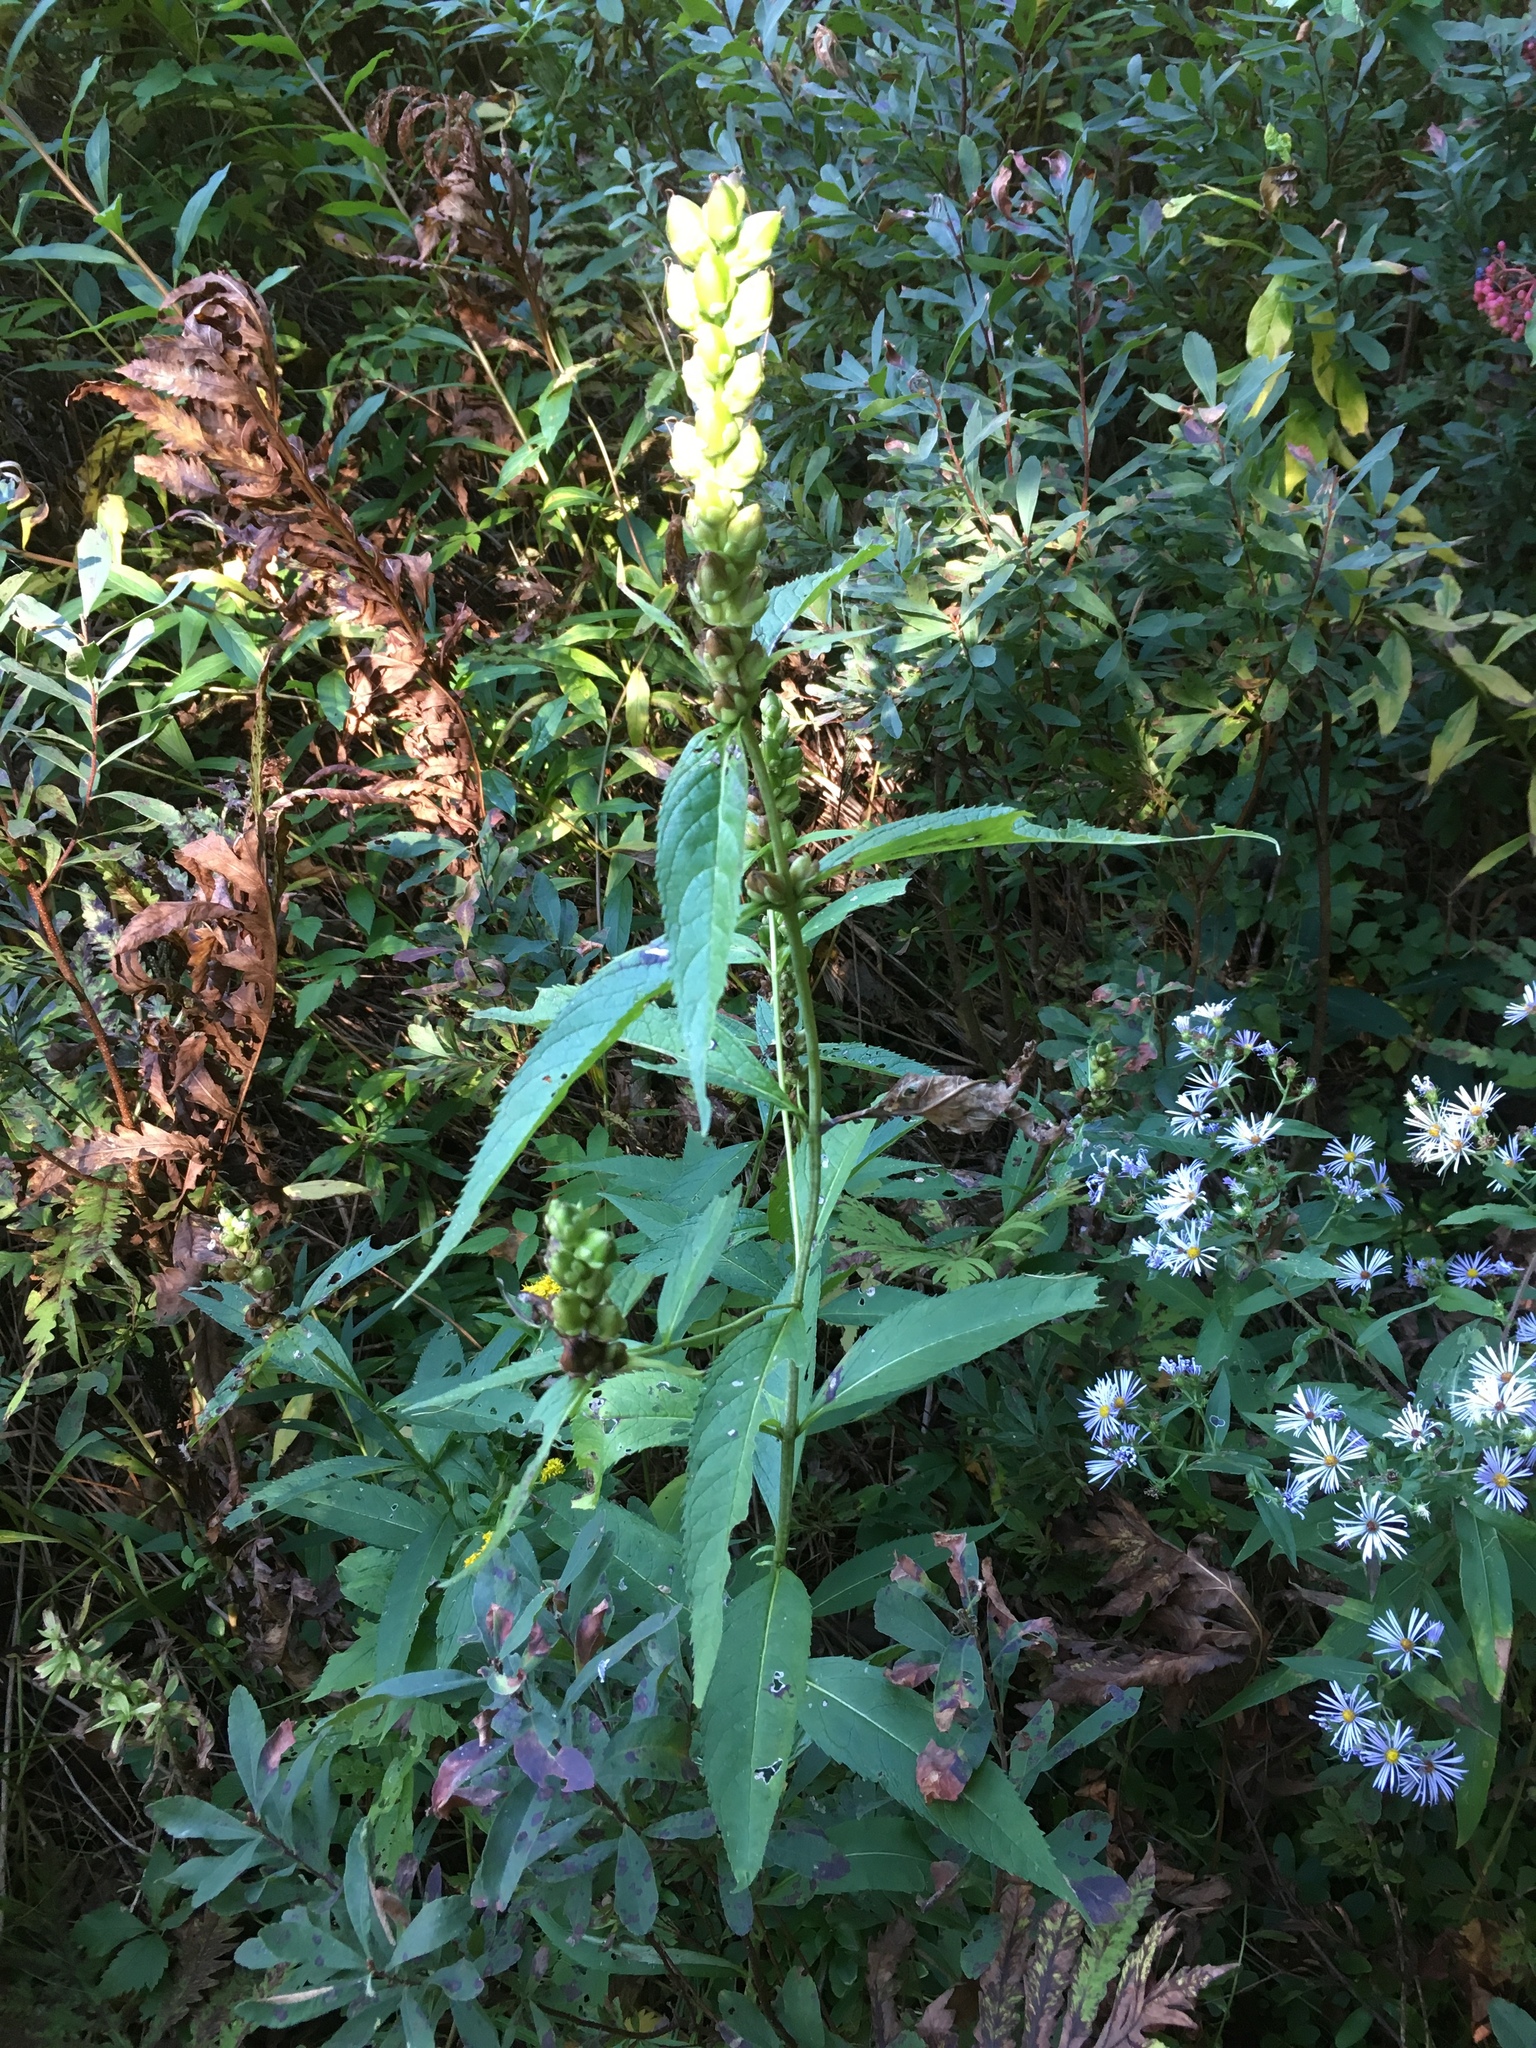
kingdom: Plantae
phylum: Tracheophyta
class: Magnoliopsida
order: Lamiales
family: Plantaginaceae
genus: Chelone
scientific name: Chelone glabra
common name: Snakehead
